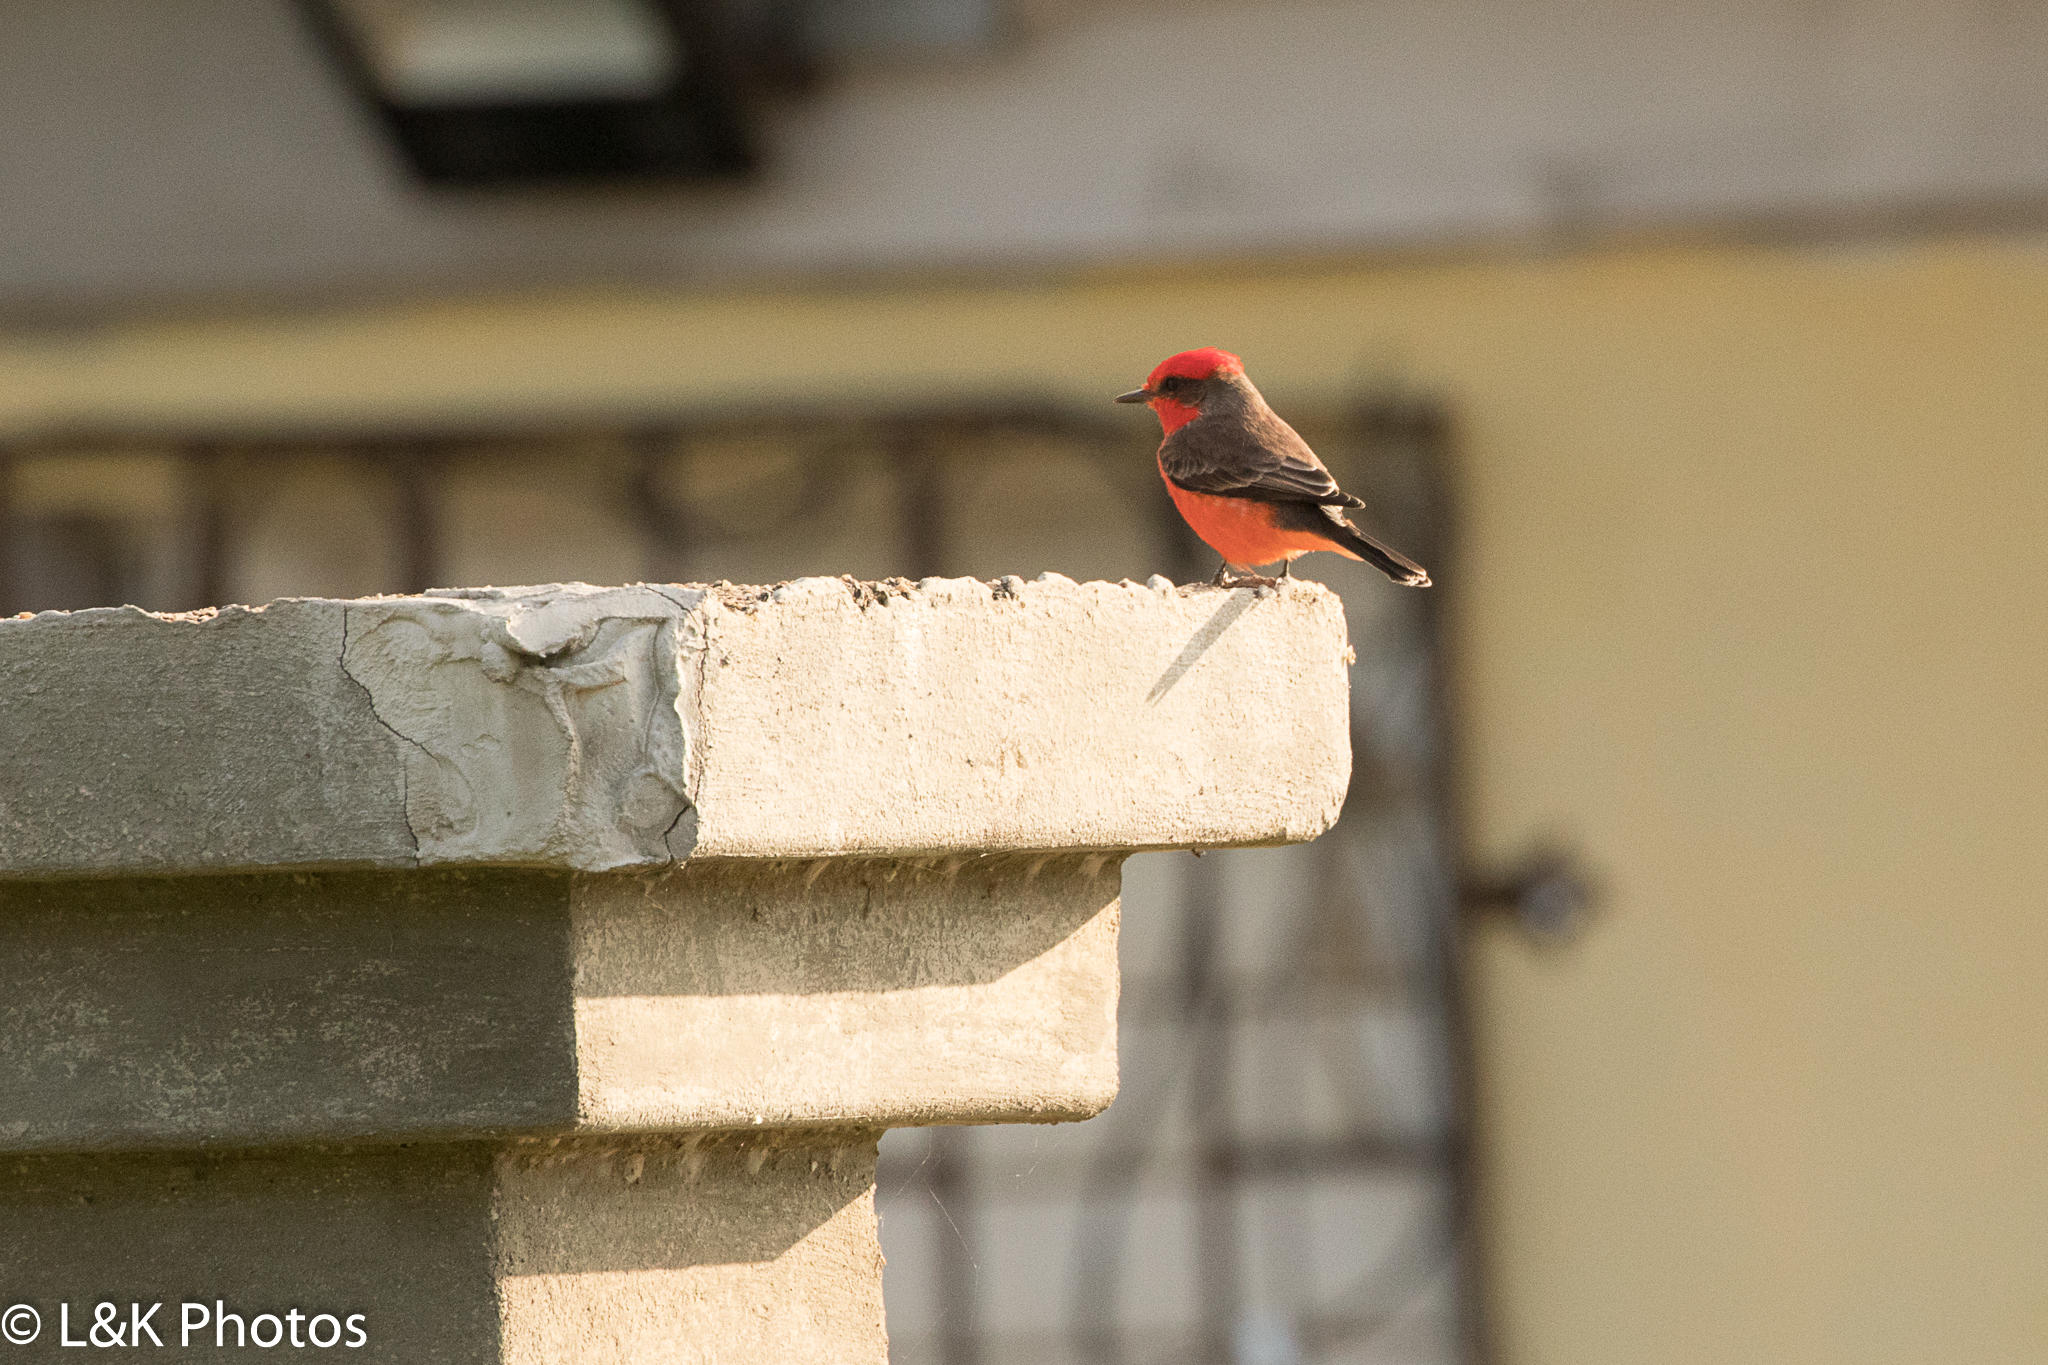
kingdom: Animalia
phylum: Chordata
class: Aves
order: Passeriformes
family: Tyrannidae
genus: Pyrocephalus
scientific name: Pyrocephalus rubinus
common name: Vermilion flycatcher
